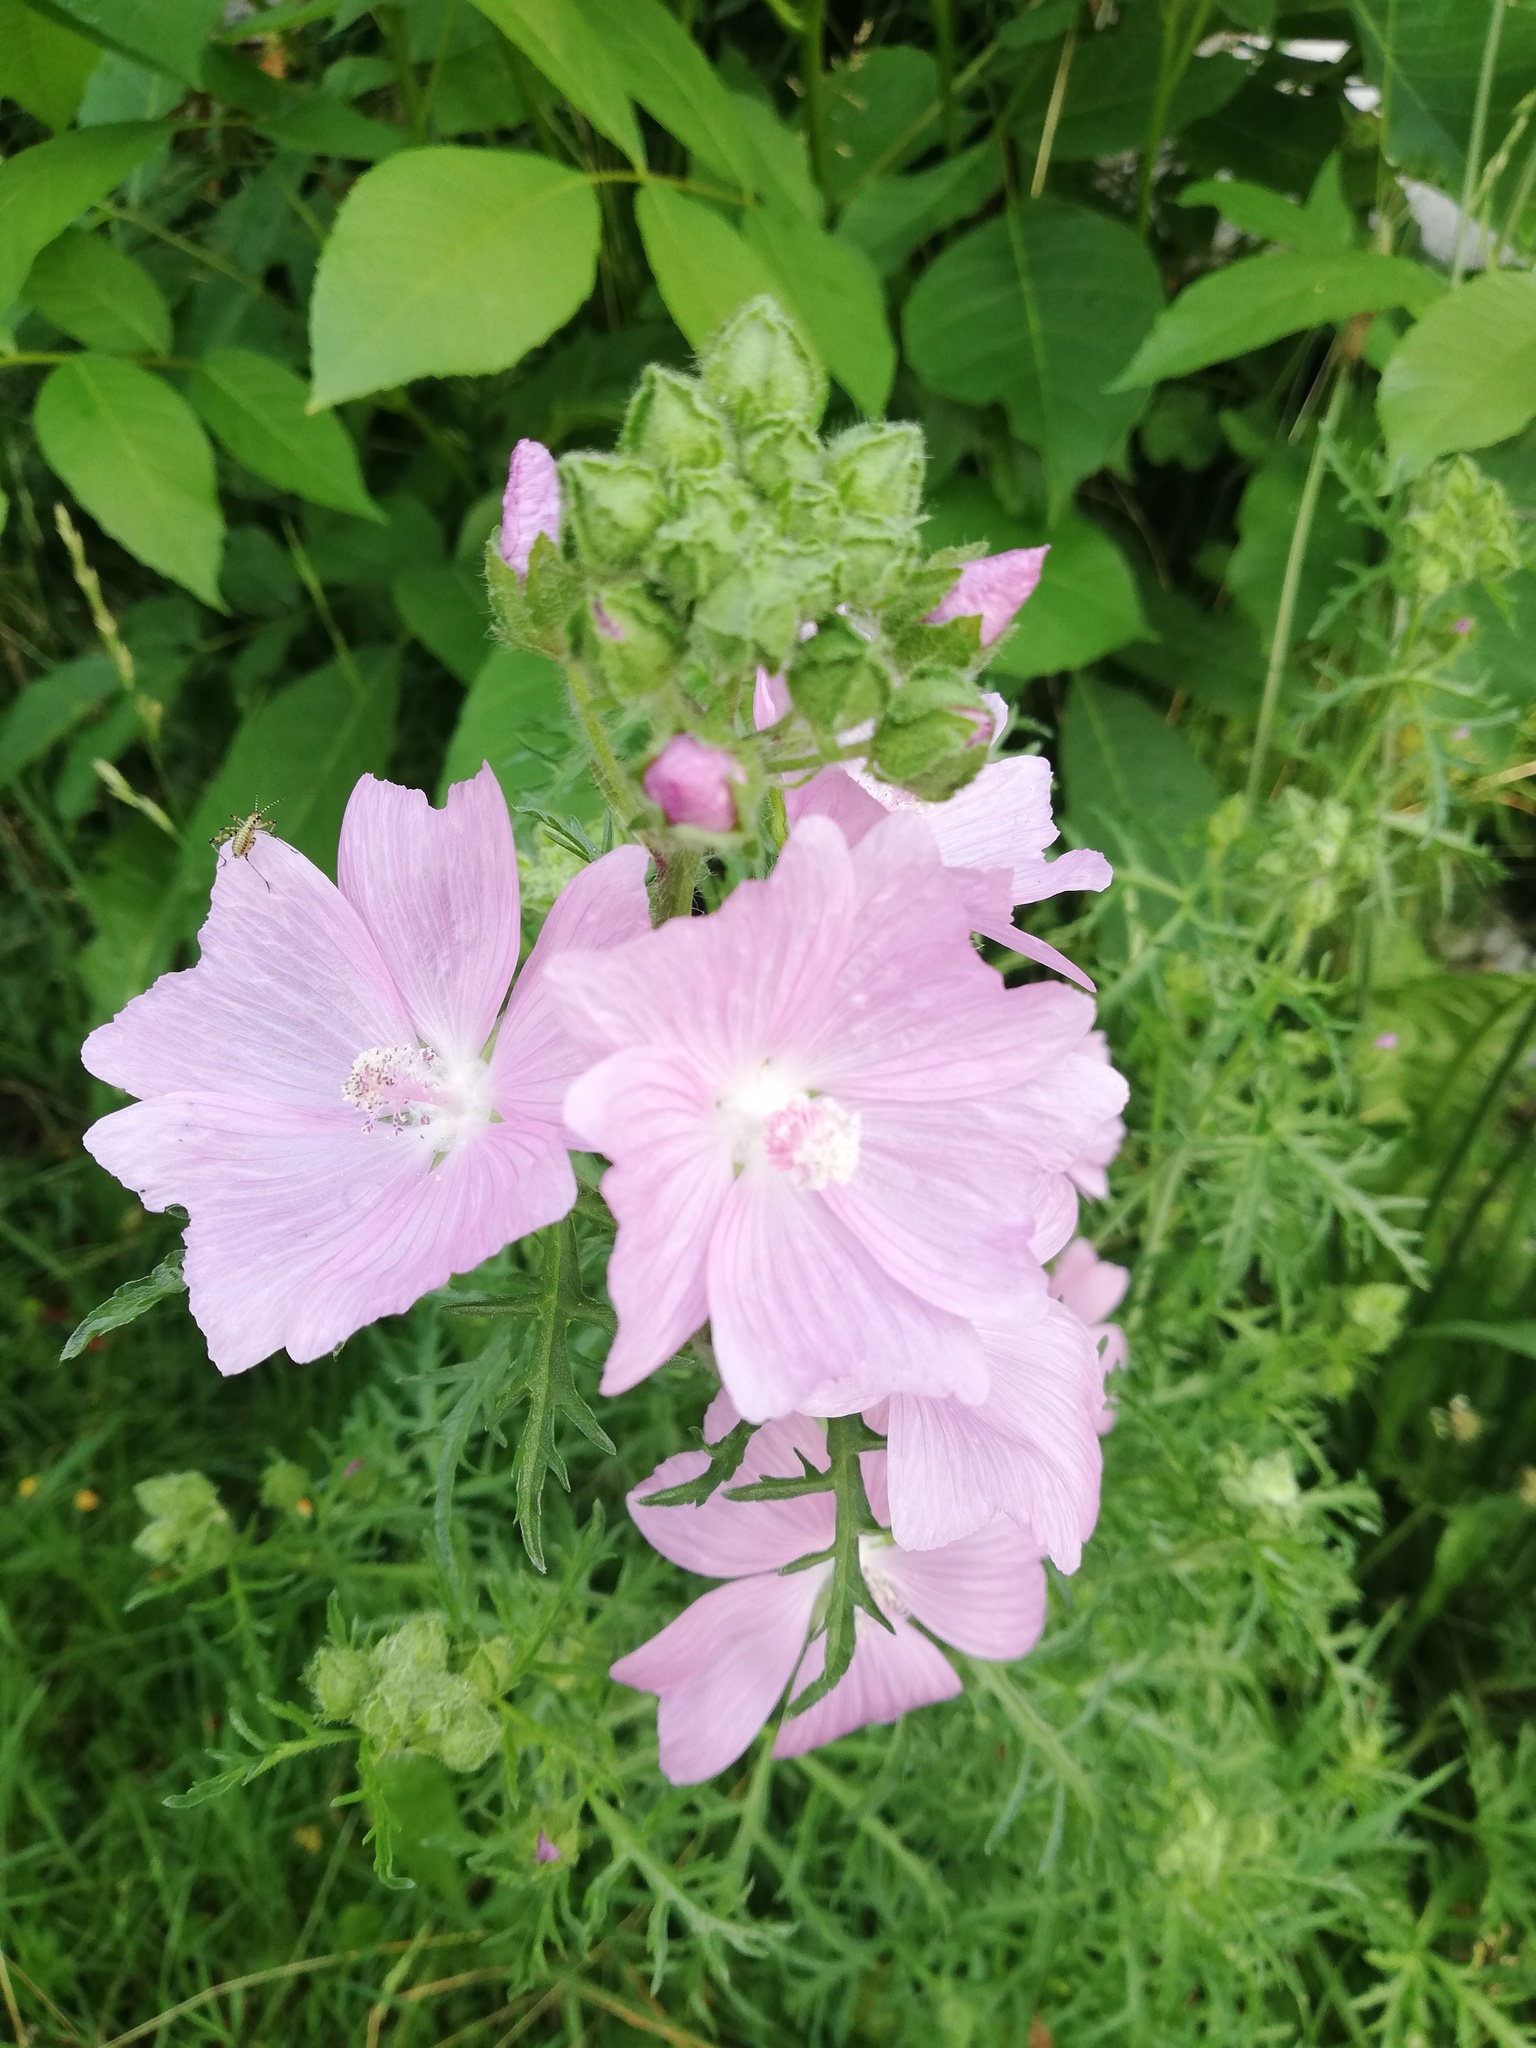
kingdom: Plantae
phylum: Tracheophyta
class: Magnoliopsida
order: Malvales
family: Malvaceae
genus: Malva
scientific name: Malva moschata
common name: Musk mallow
